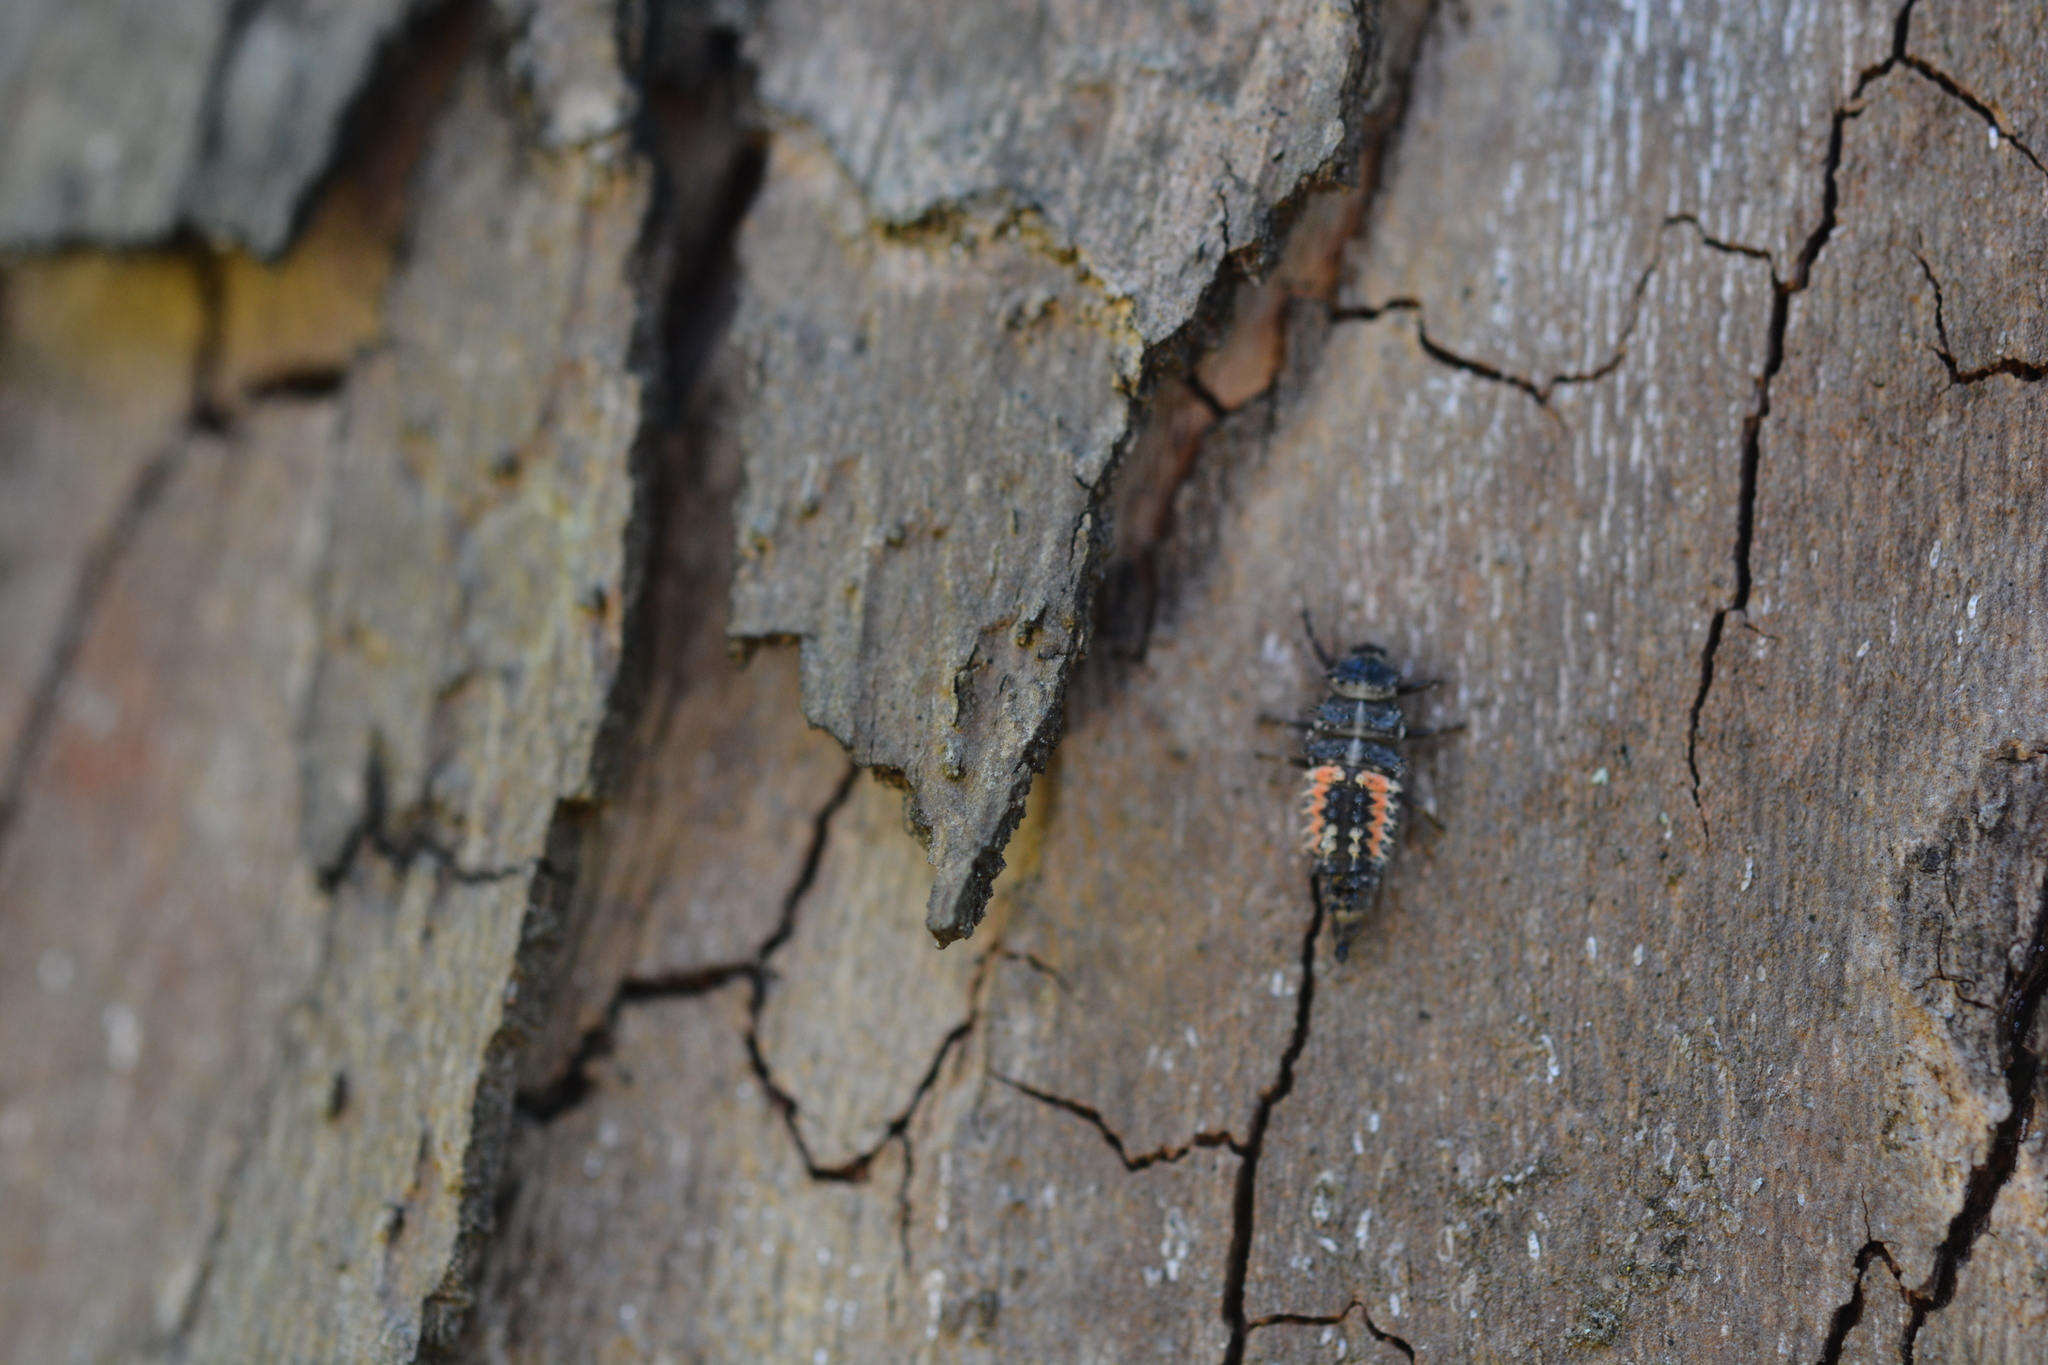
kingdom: Animalia
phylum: Arthropoda
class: Insecta
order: Coleoptera
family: Coccinellidae
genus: Harmonia
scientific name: Harmonia axyridis
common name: Harlequin ladybird
